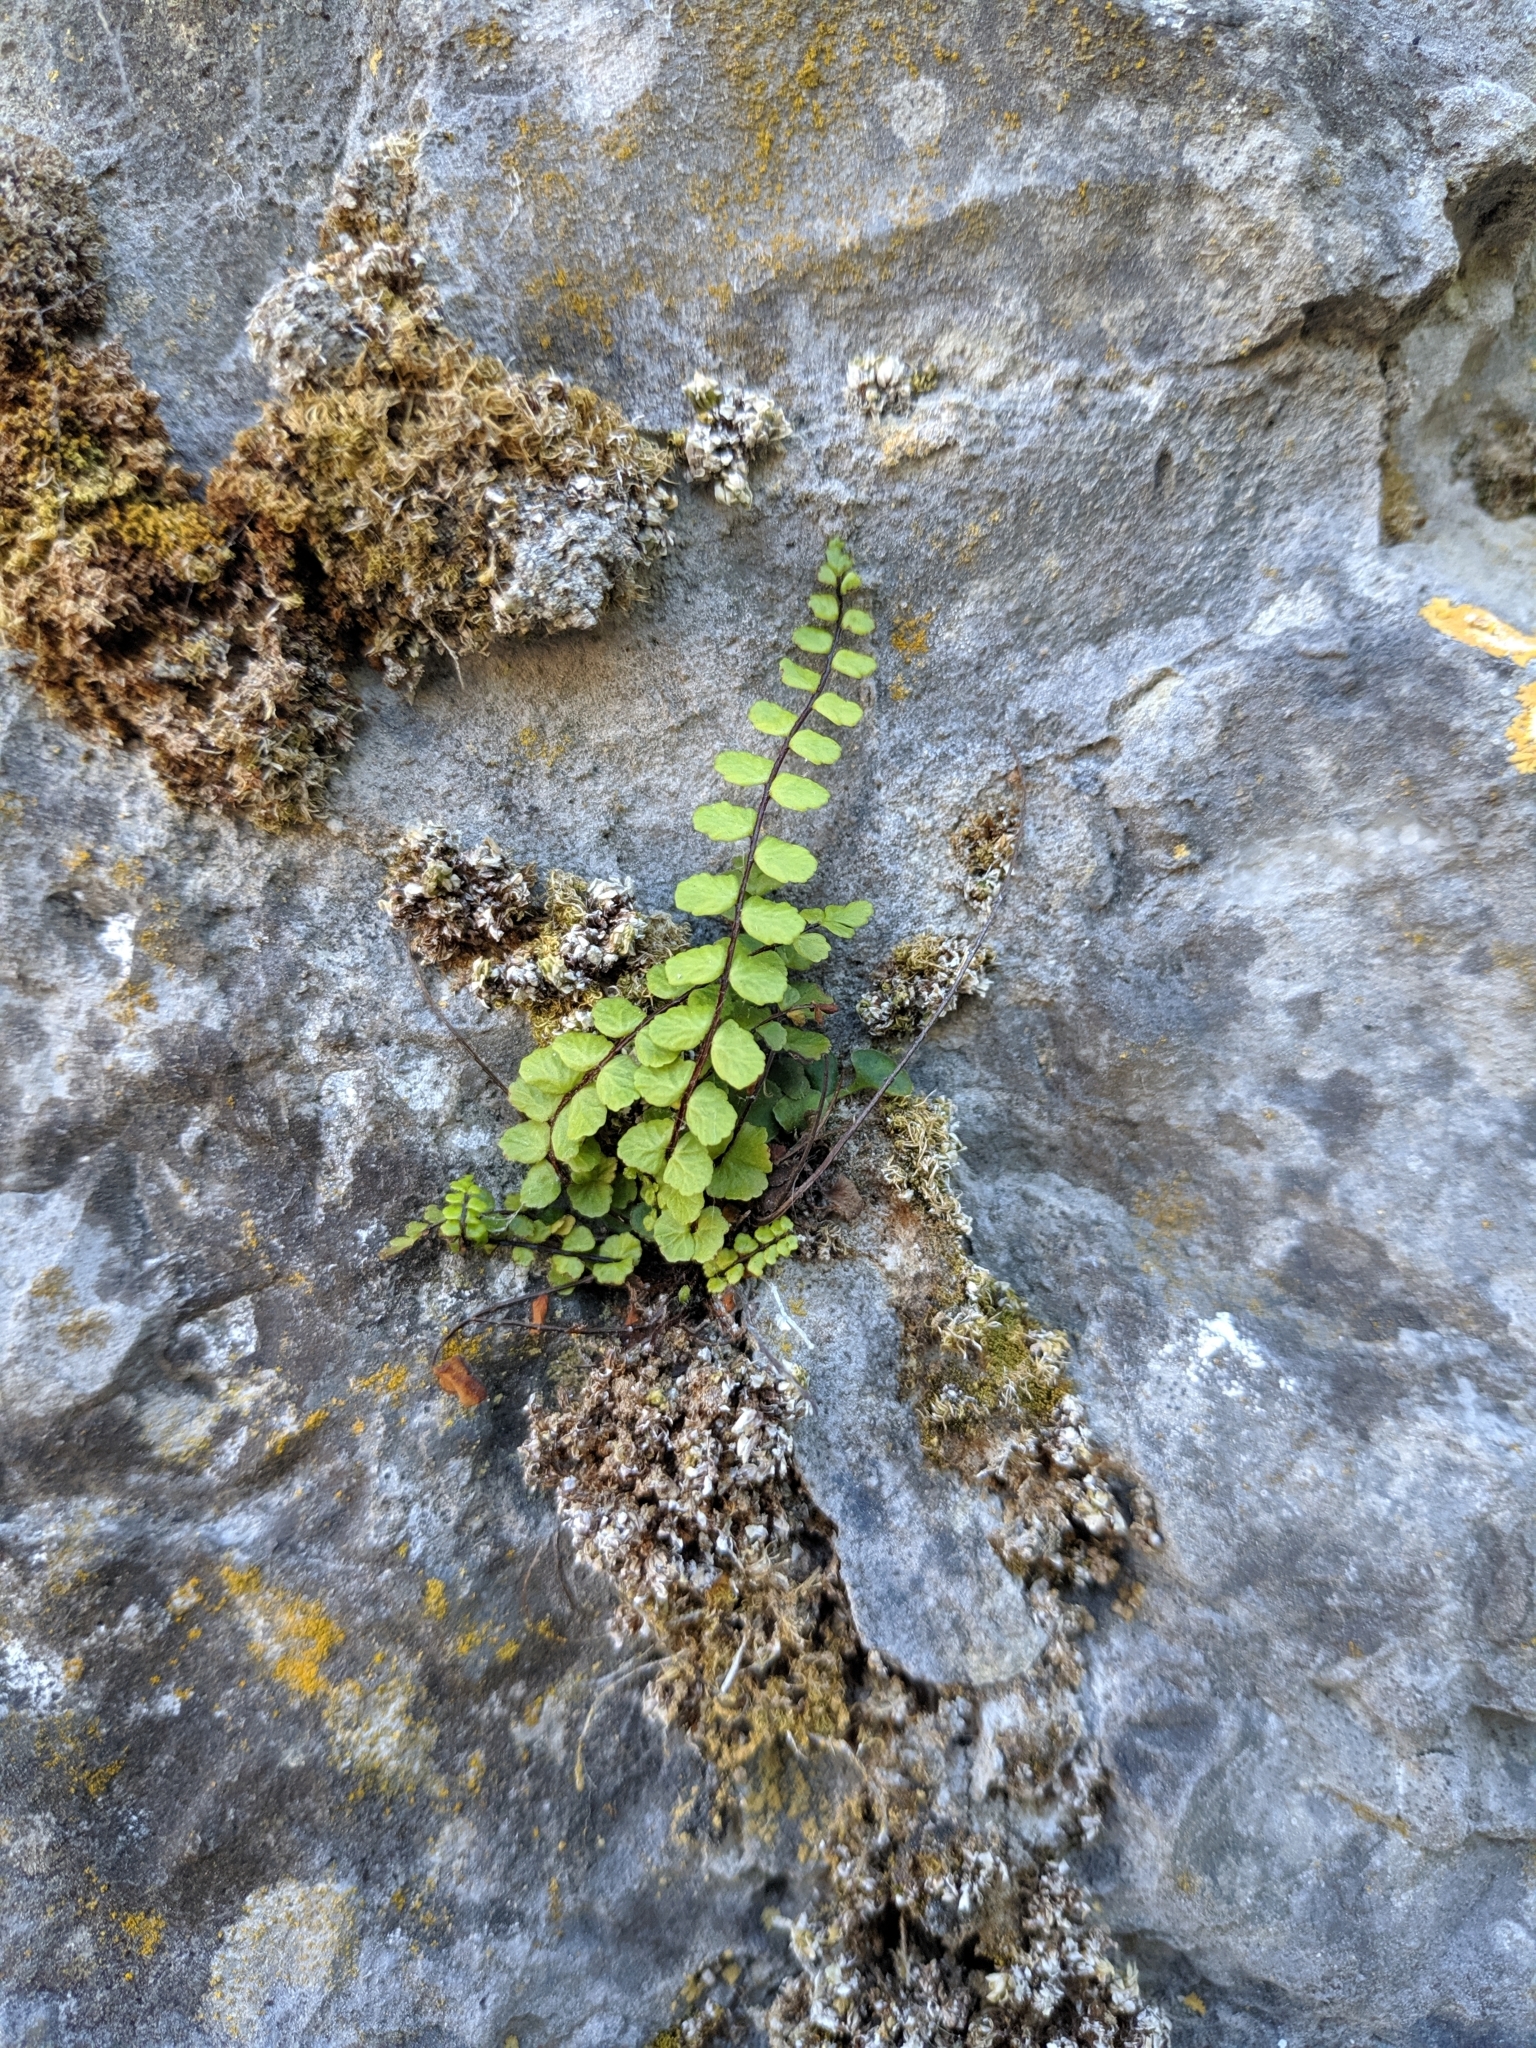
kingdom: Plantae
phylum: Tracheophyta
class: Polypodiopsida
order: Polypodiales
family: Aspleniaceae
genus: Asplenium
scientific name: Asplenium trichomanes
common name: Maidenhair spleenwort
